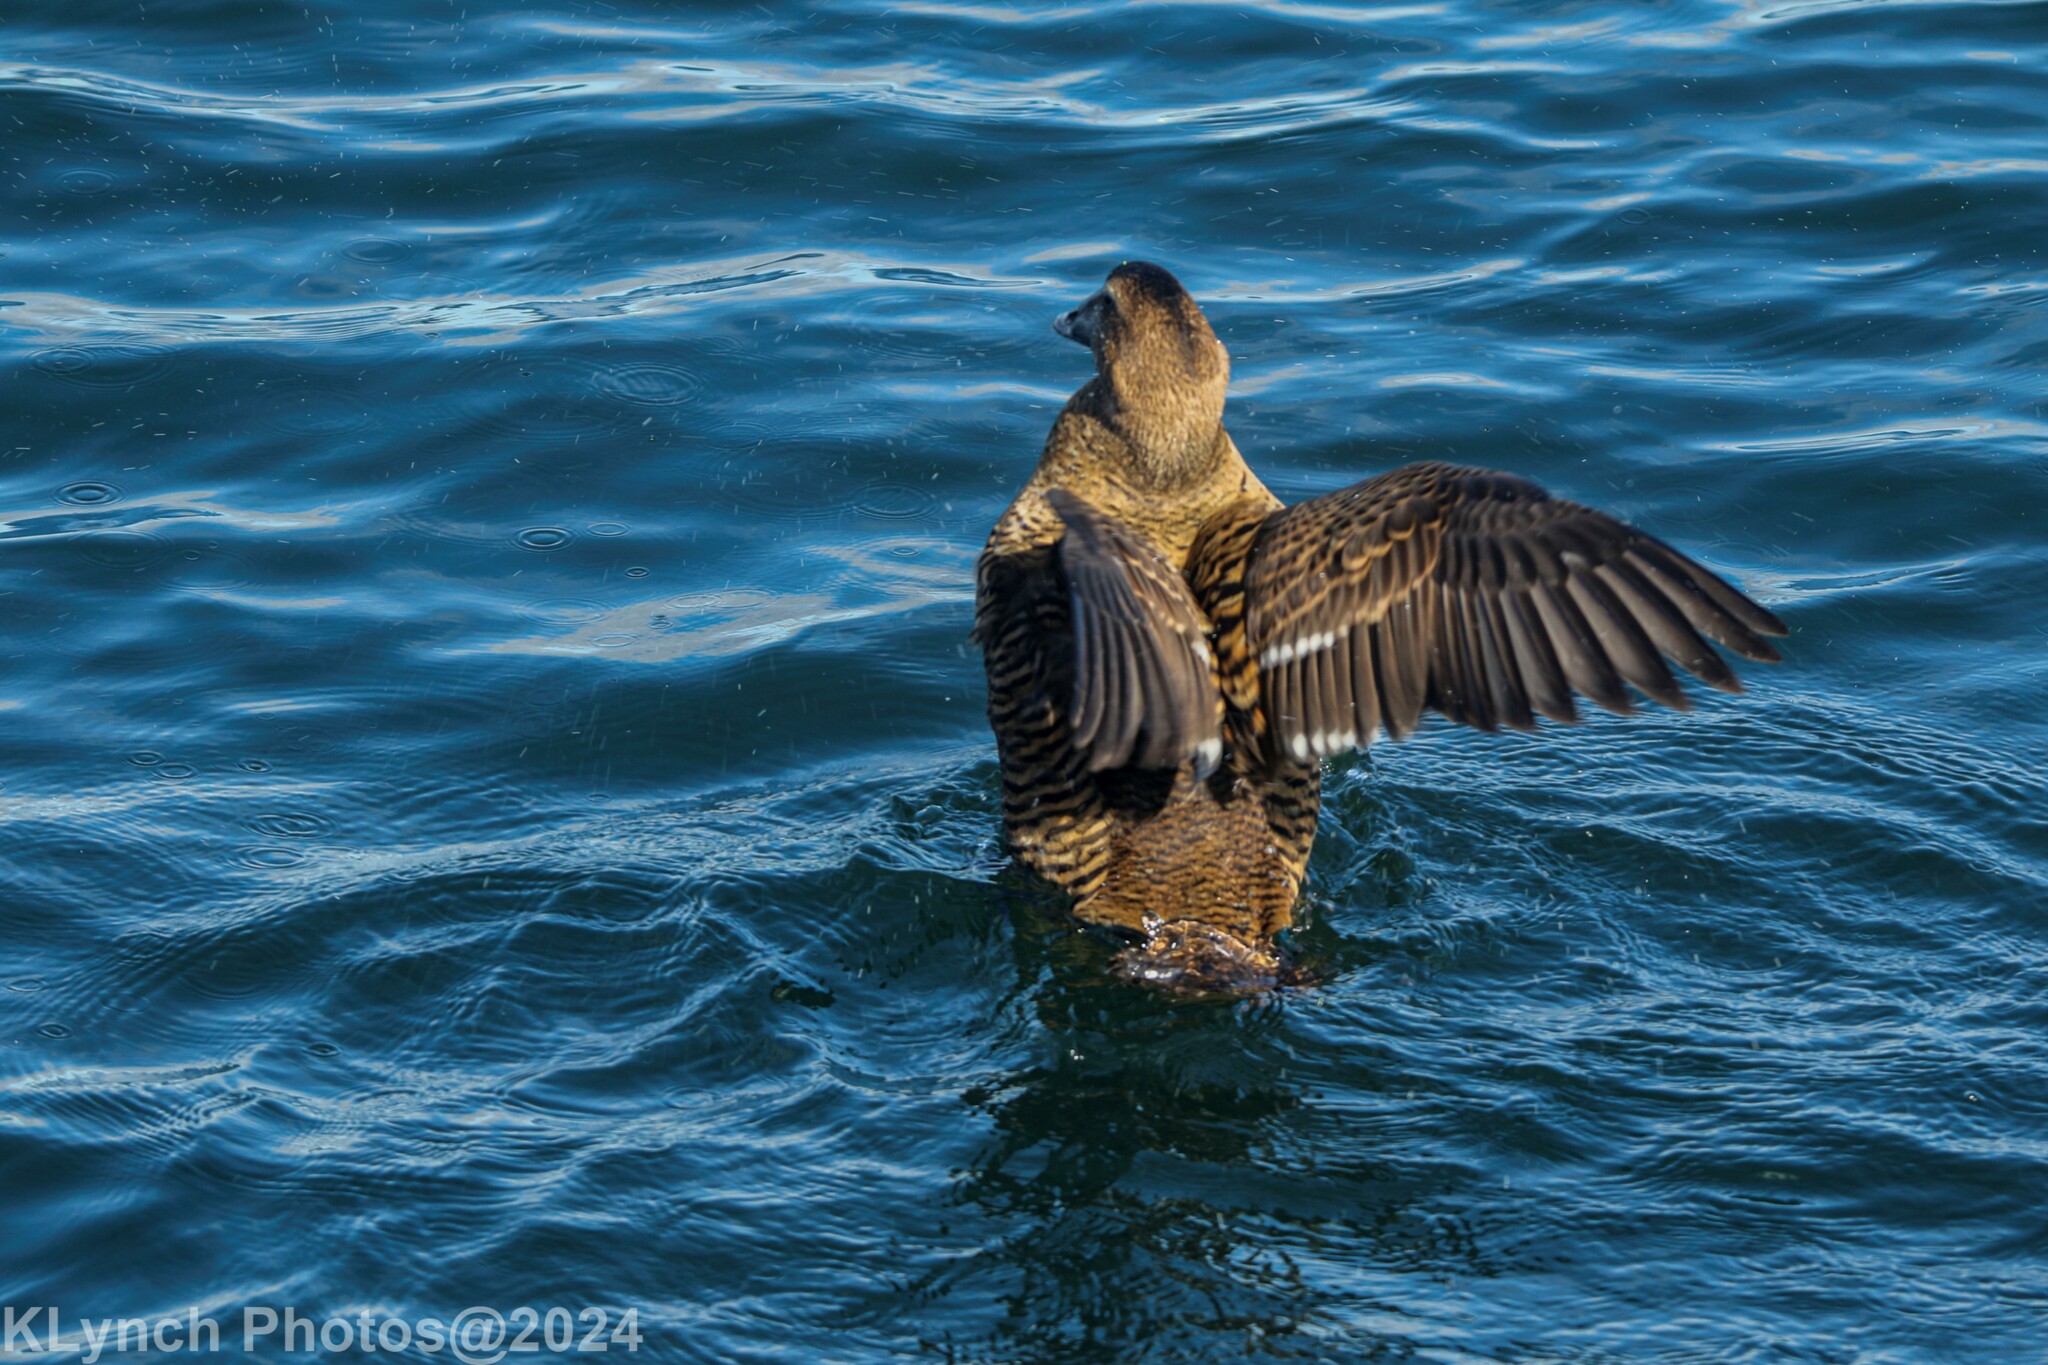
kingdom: Animalia
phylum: Chordata
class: Aves
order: Anseriformes
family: Anatidae
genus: Somateria
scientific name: Somateria mollissima
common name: Common eider
